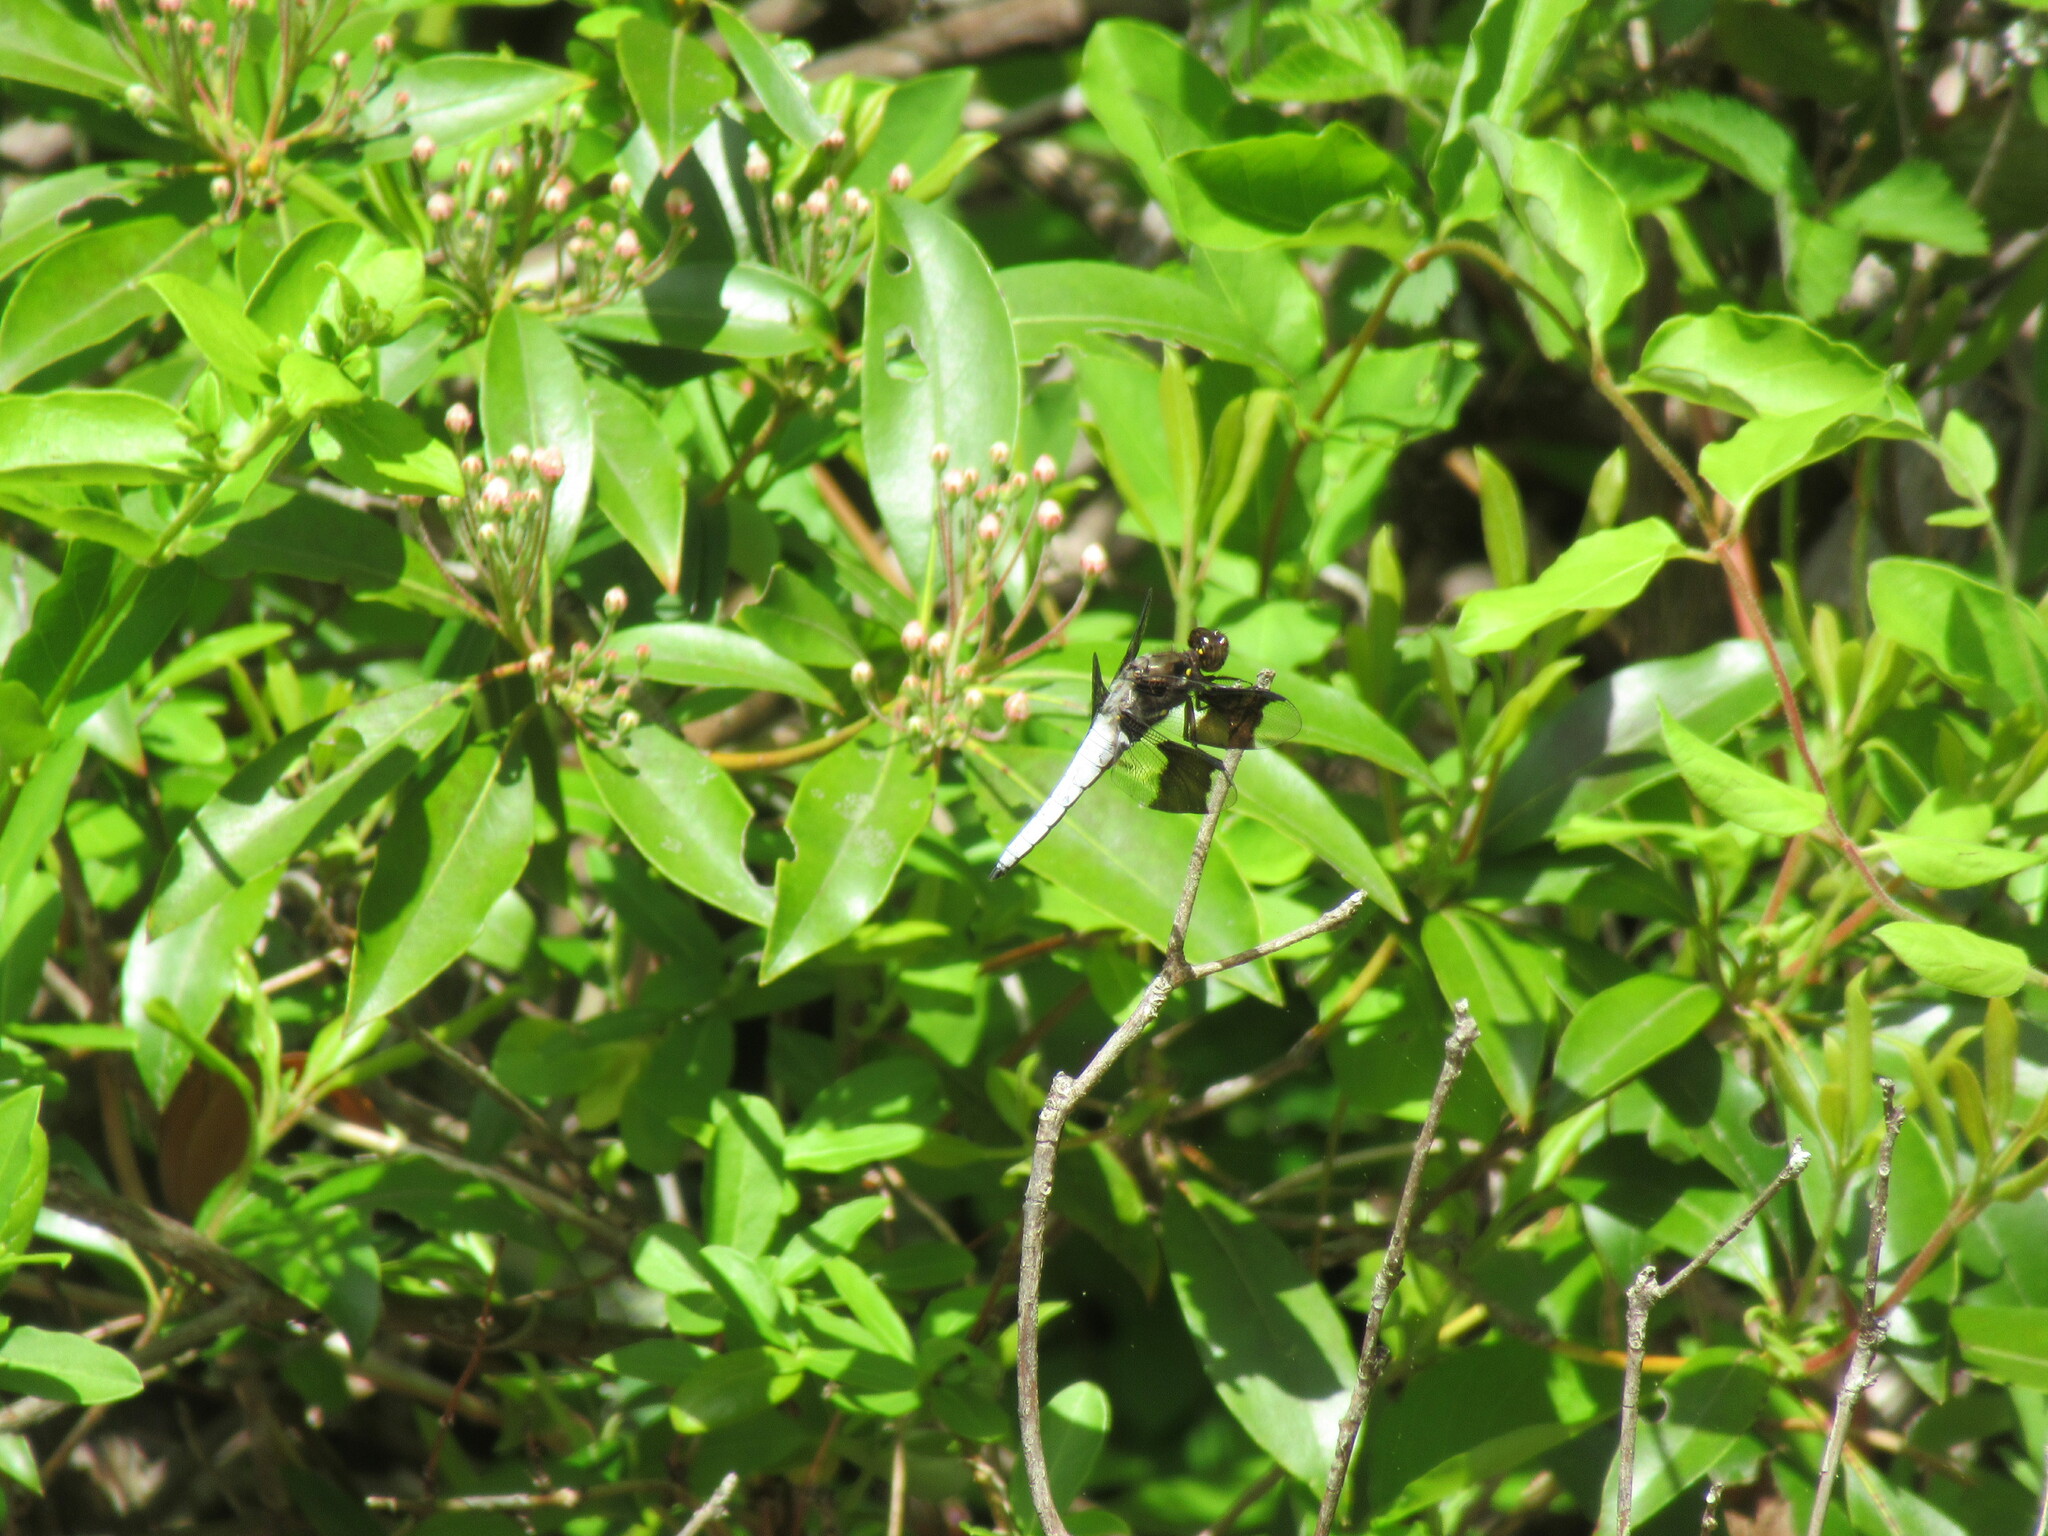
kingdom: Animalia
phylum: Arthropoda
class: Insecta
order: Odonata
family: Libellulidae
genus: Plathemis
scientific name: Plathemis lydia
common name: Common whitetail
